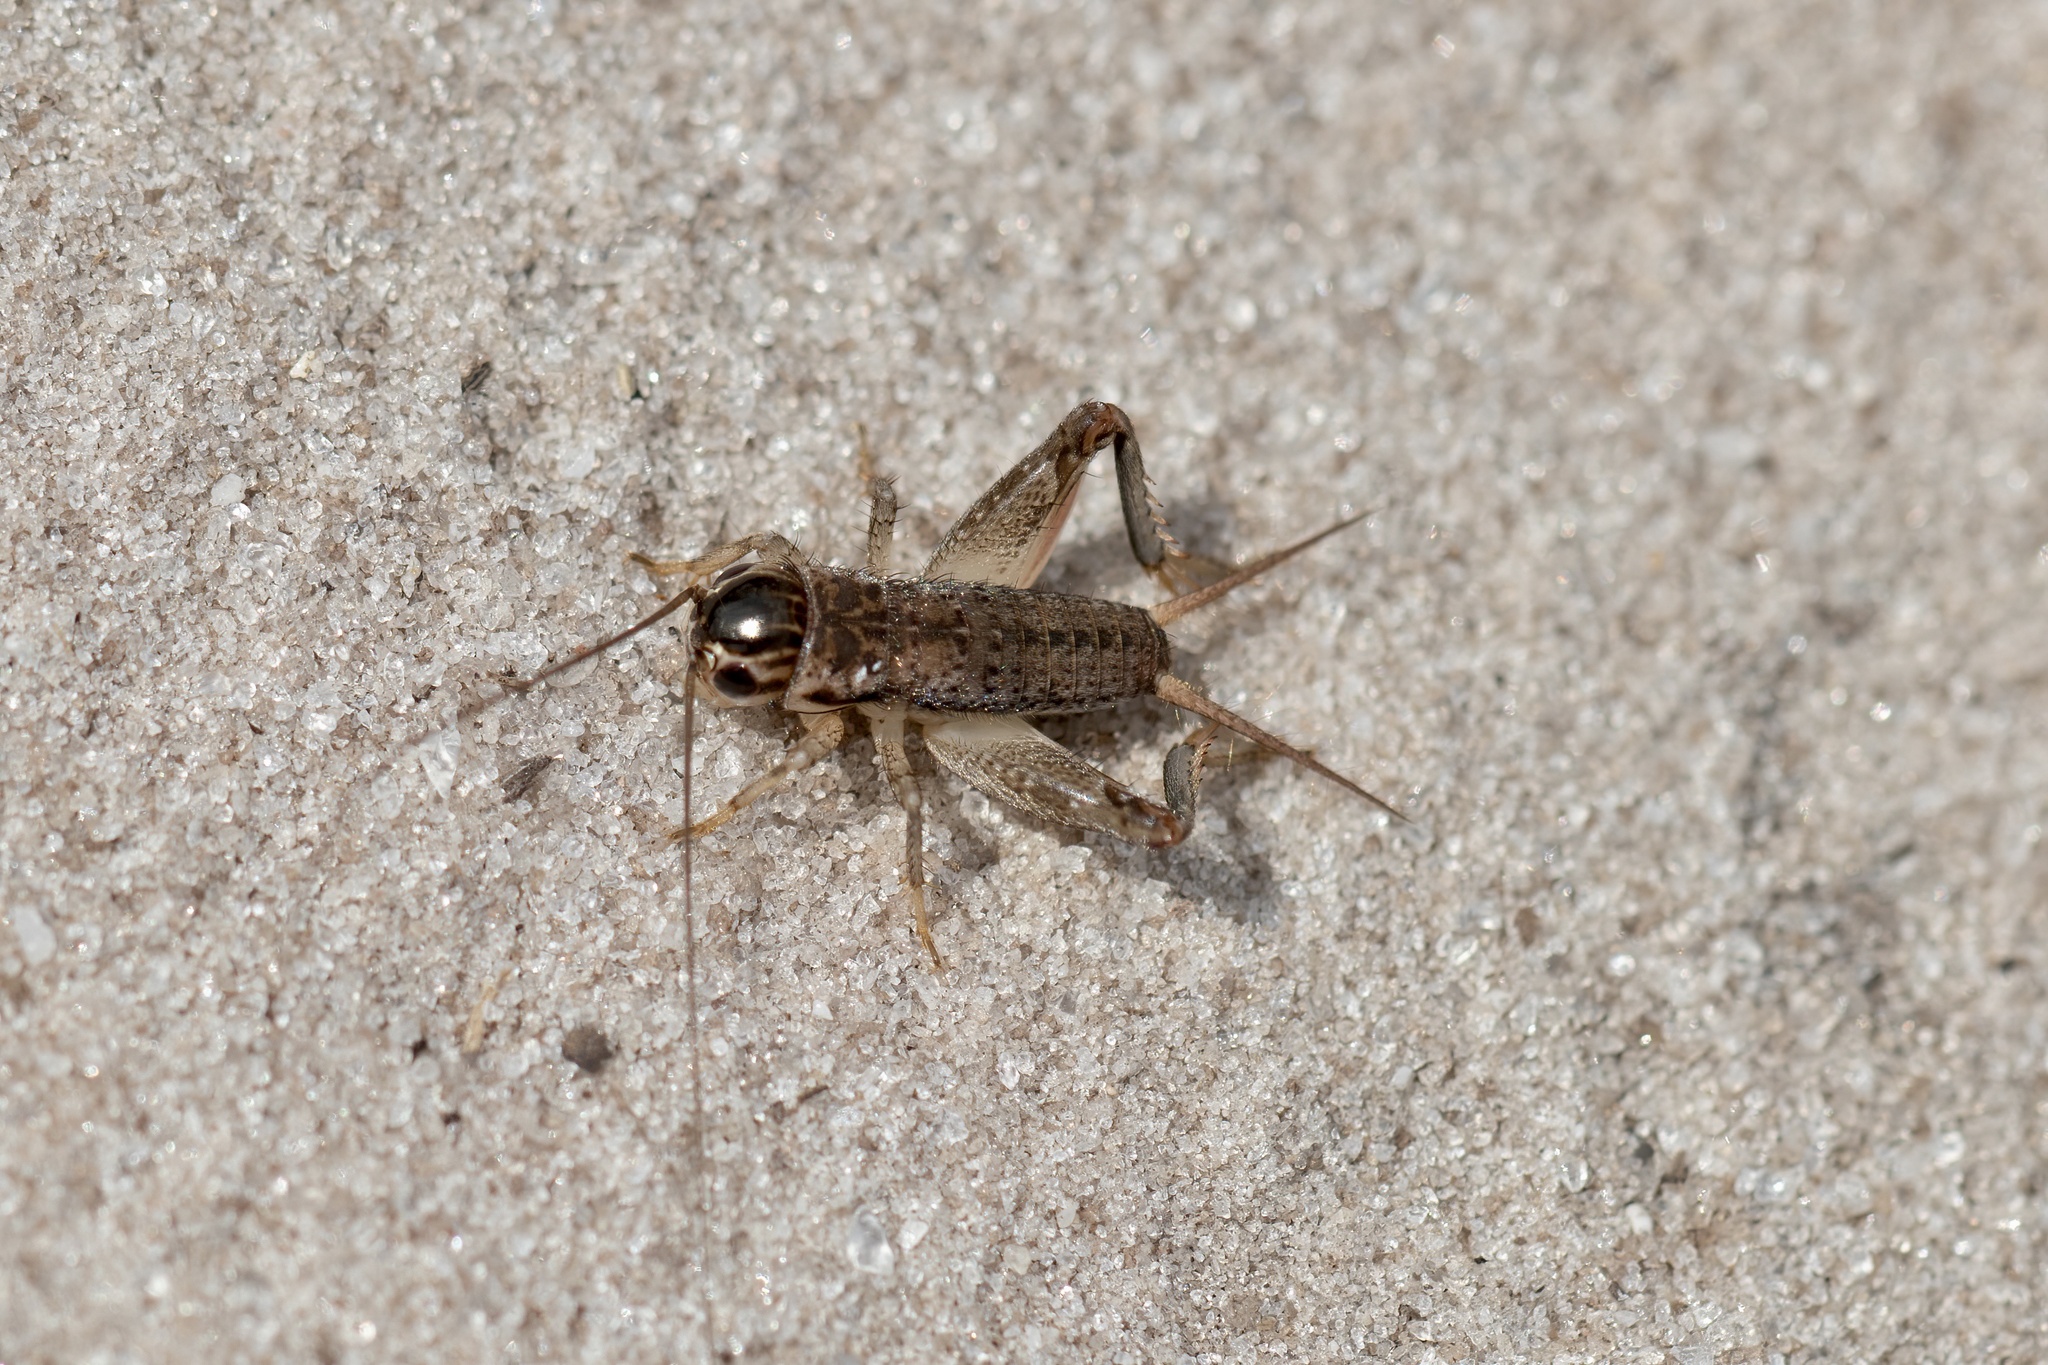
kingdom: Animalia
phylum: Arthropoda
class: Insecta
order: Orthoptera
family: Gryllidae
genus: Miogryllus
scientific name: Miogryllus verticalis
